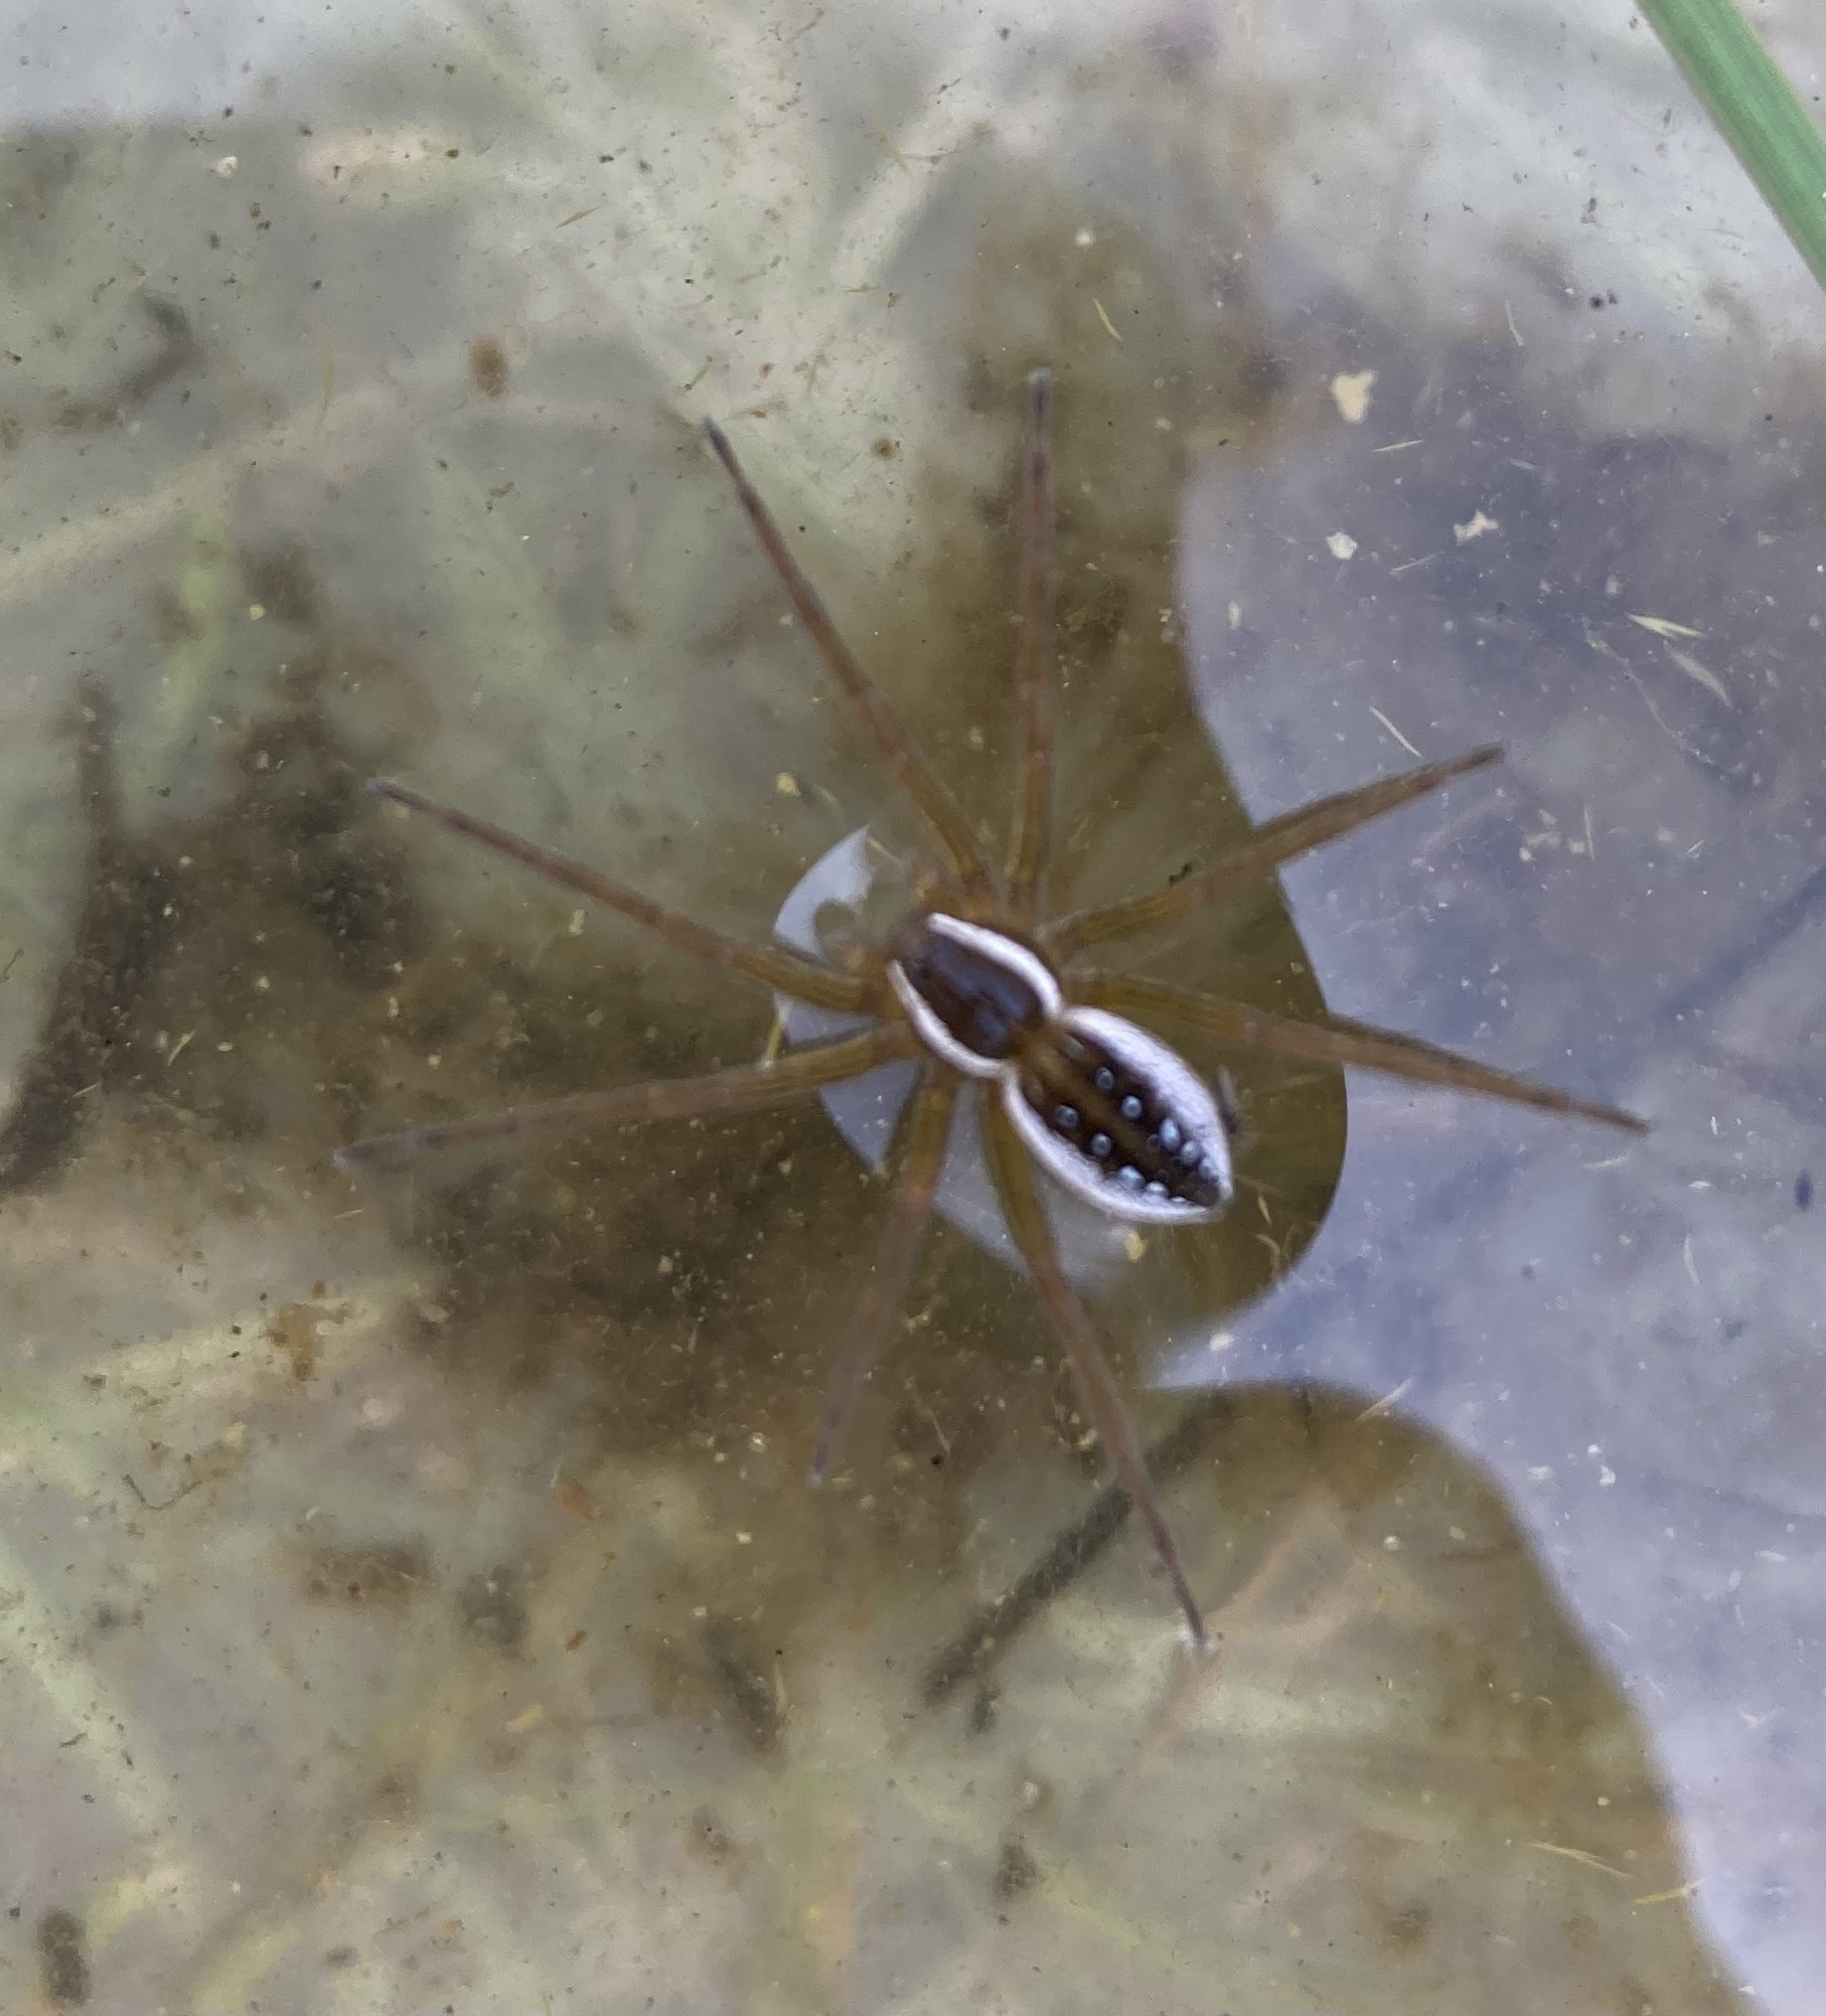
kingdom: Animalia
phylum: Arthropoda
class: Arachnida
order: Araneae
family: Pisauridae
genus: Dolomedes
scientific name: Dolomedes triton
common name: Six-spotted fishing spider
